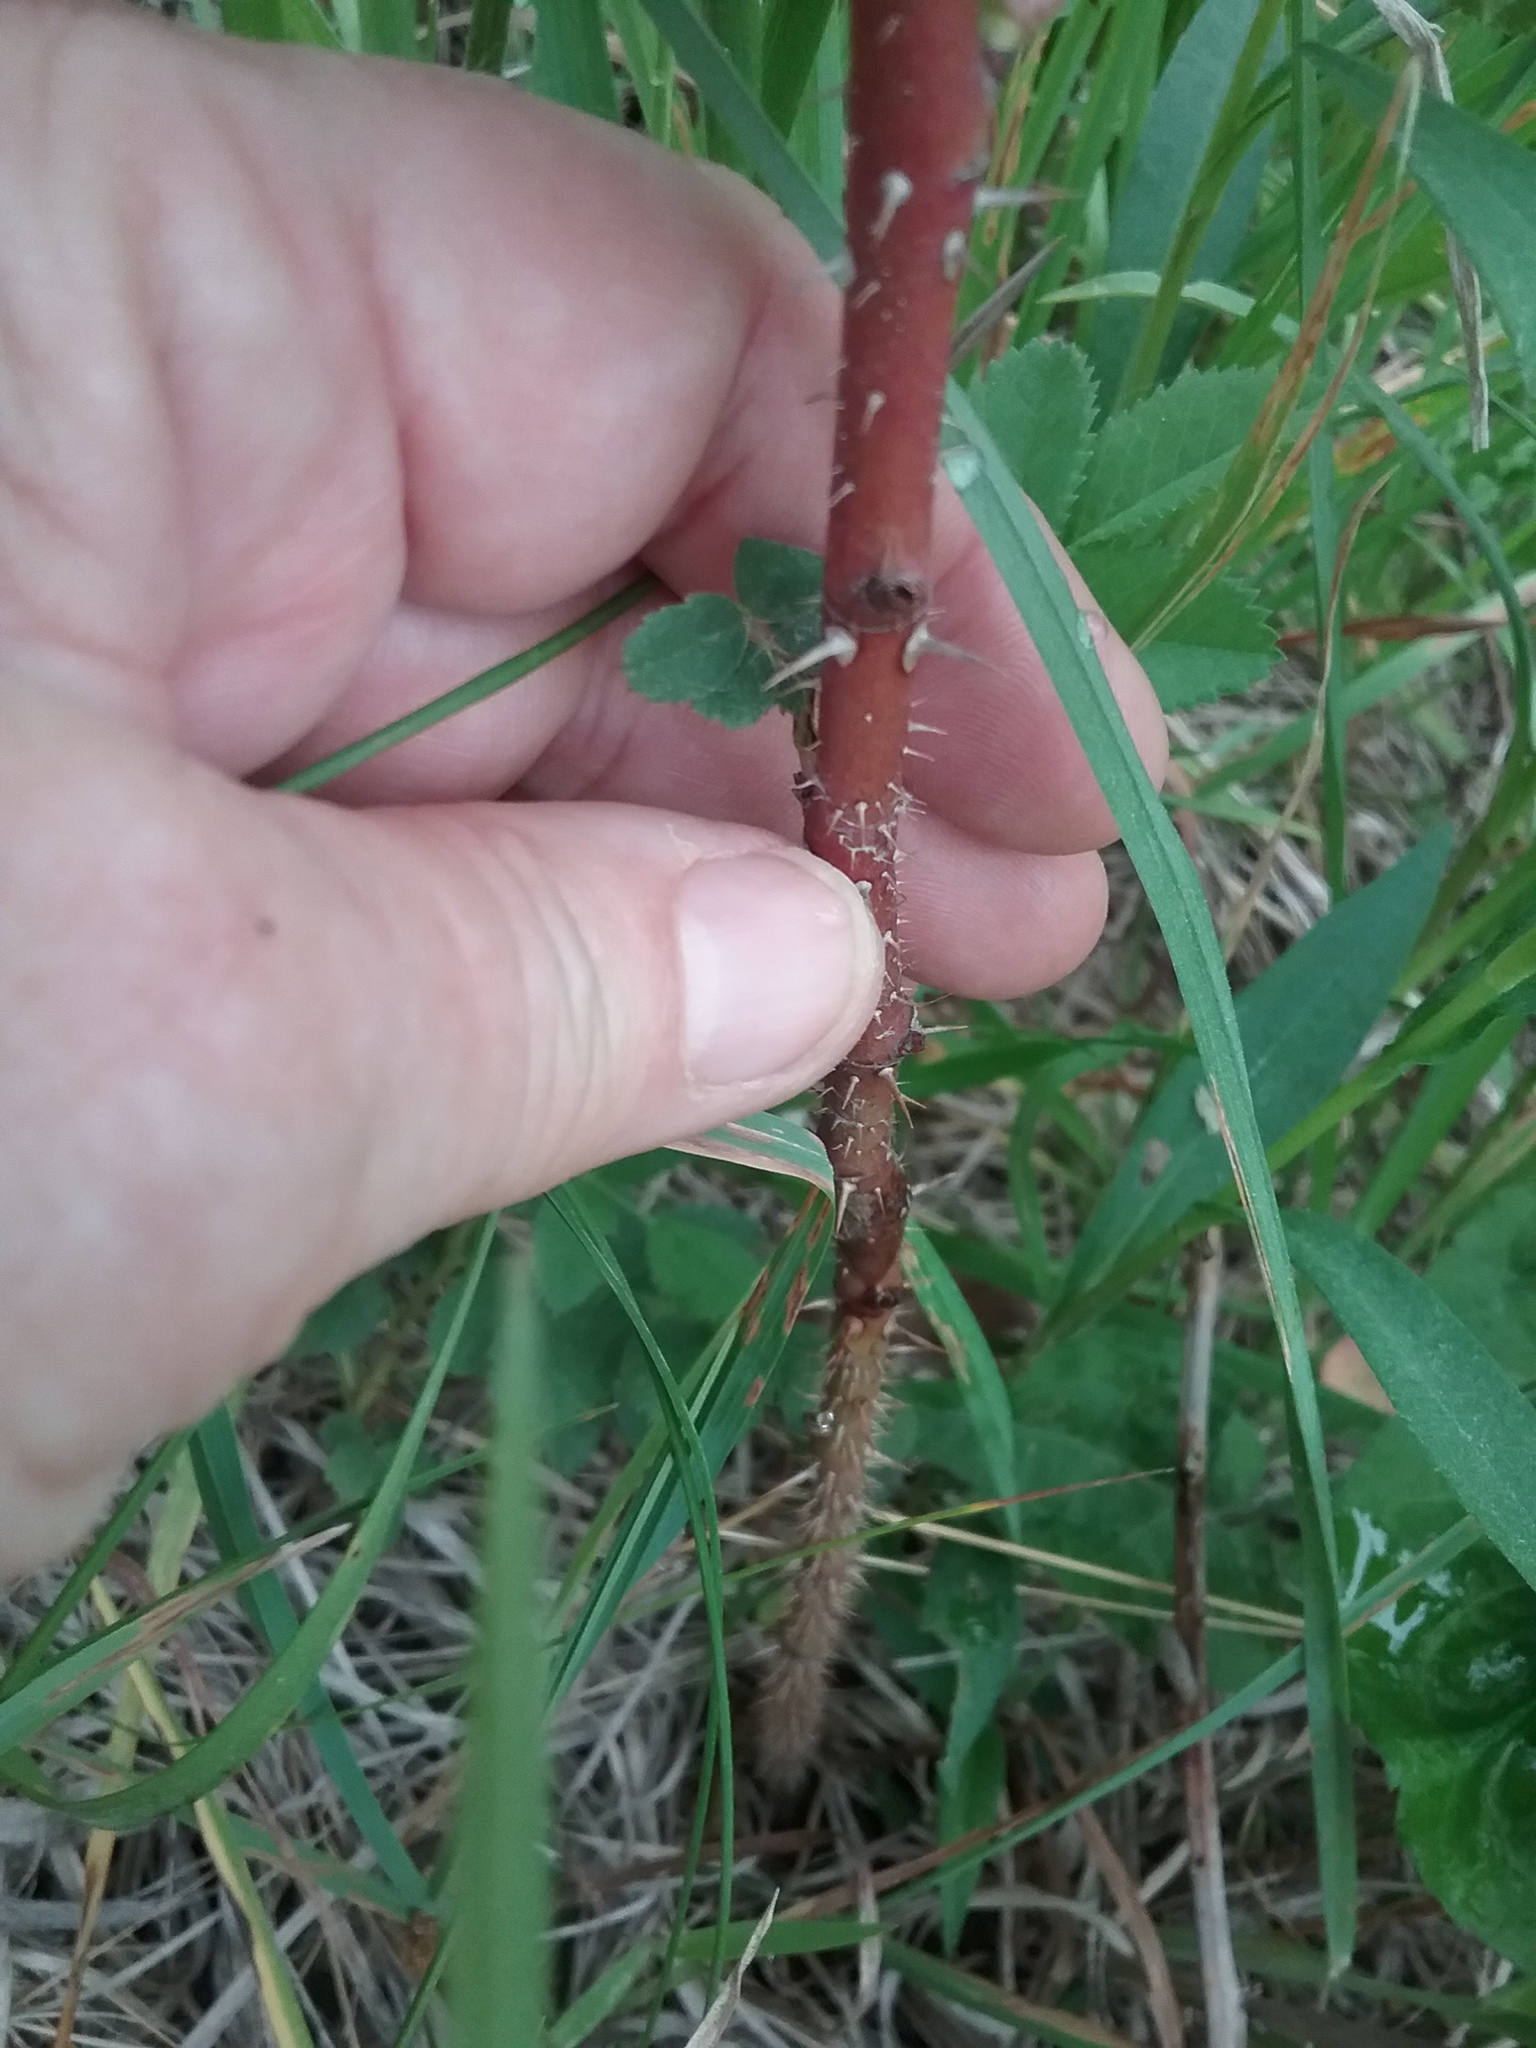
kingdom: Plantae
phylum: Tracheophyta
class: Magnoliopsida
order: Rosales
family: Rosaceae
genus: Rosa
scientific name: Rosa carolina
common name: Pasture rose
